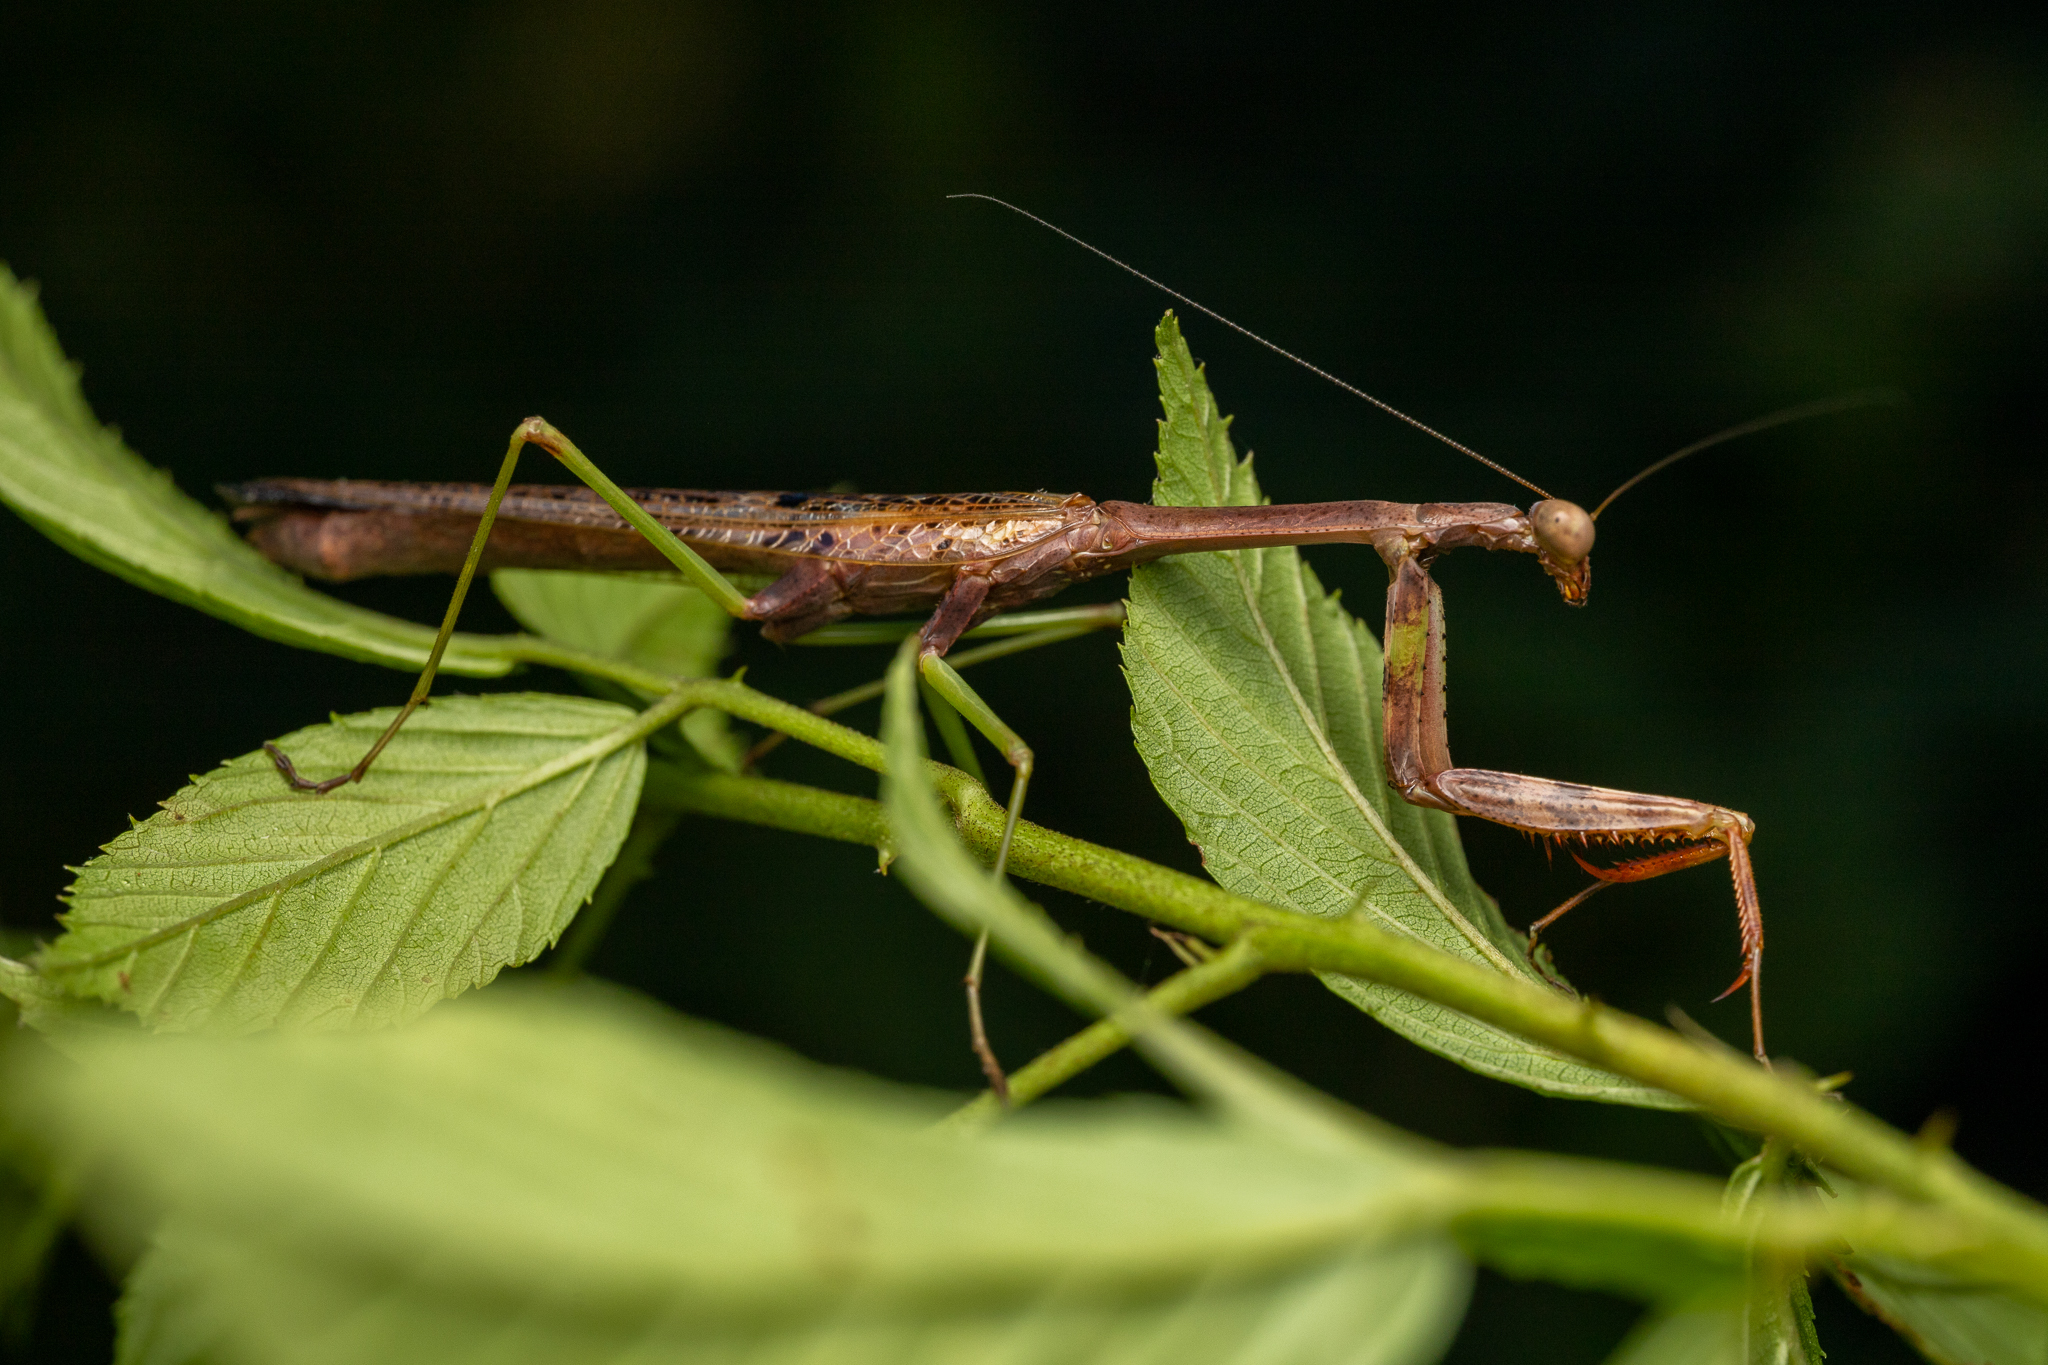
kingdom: Animalia
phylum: Arthropoda
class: Insecta
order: Mantodea
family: Mantidae
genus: Stagmomantis
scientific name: Stagmomantis carolina
